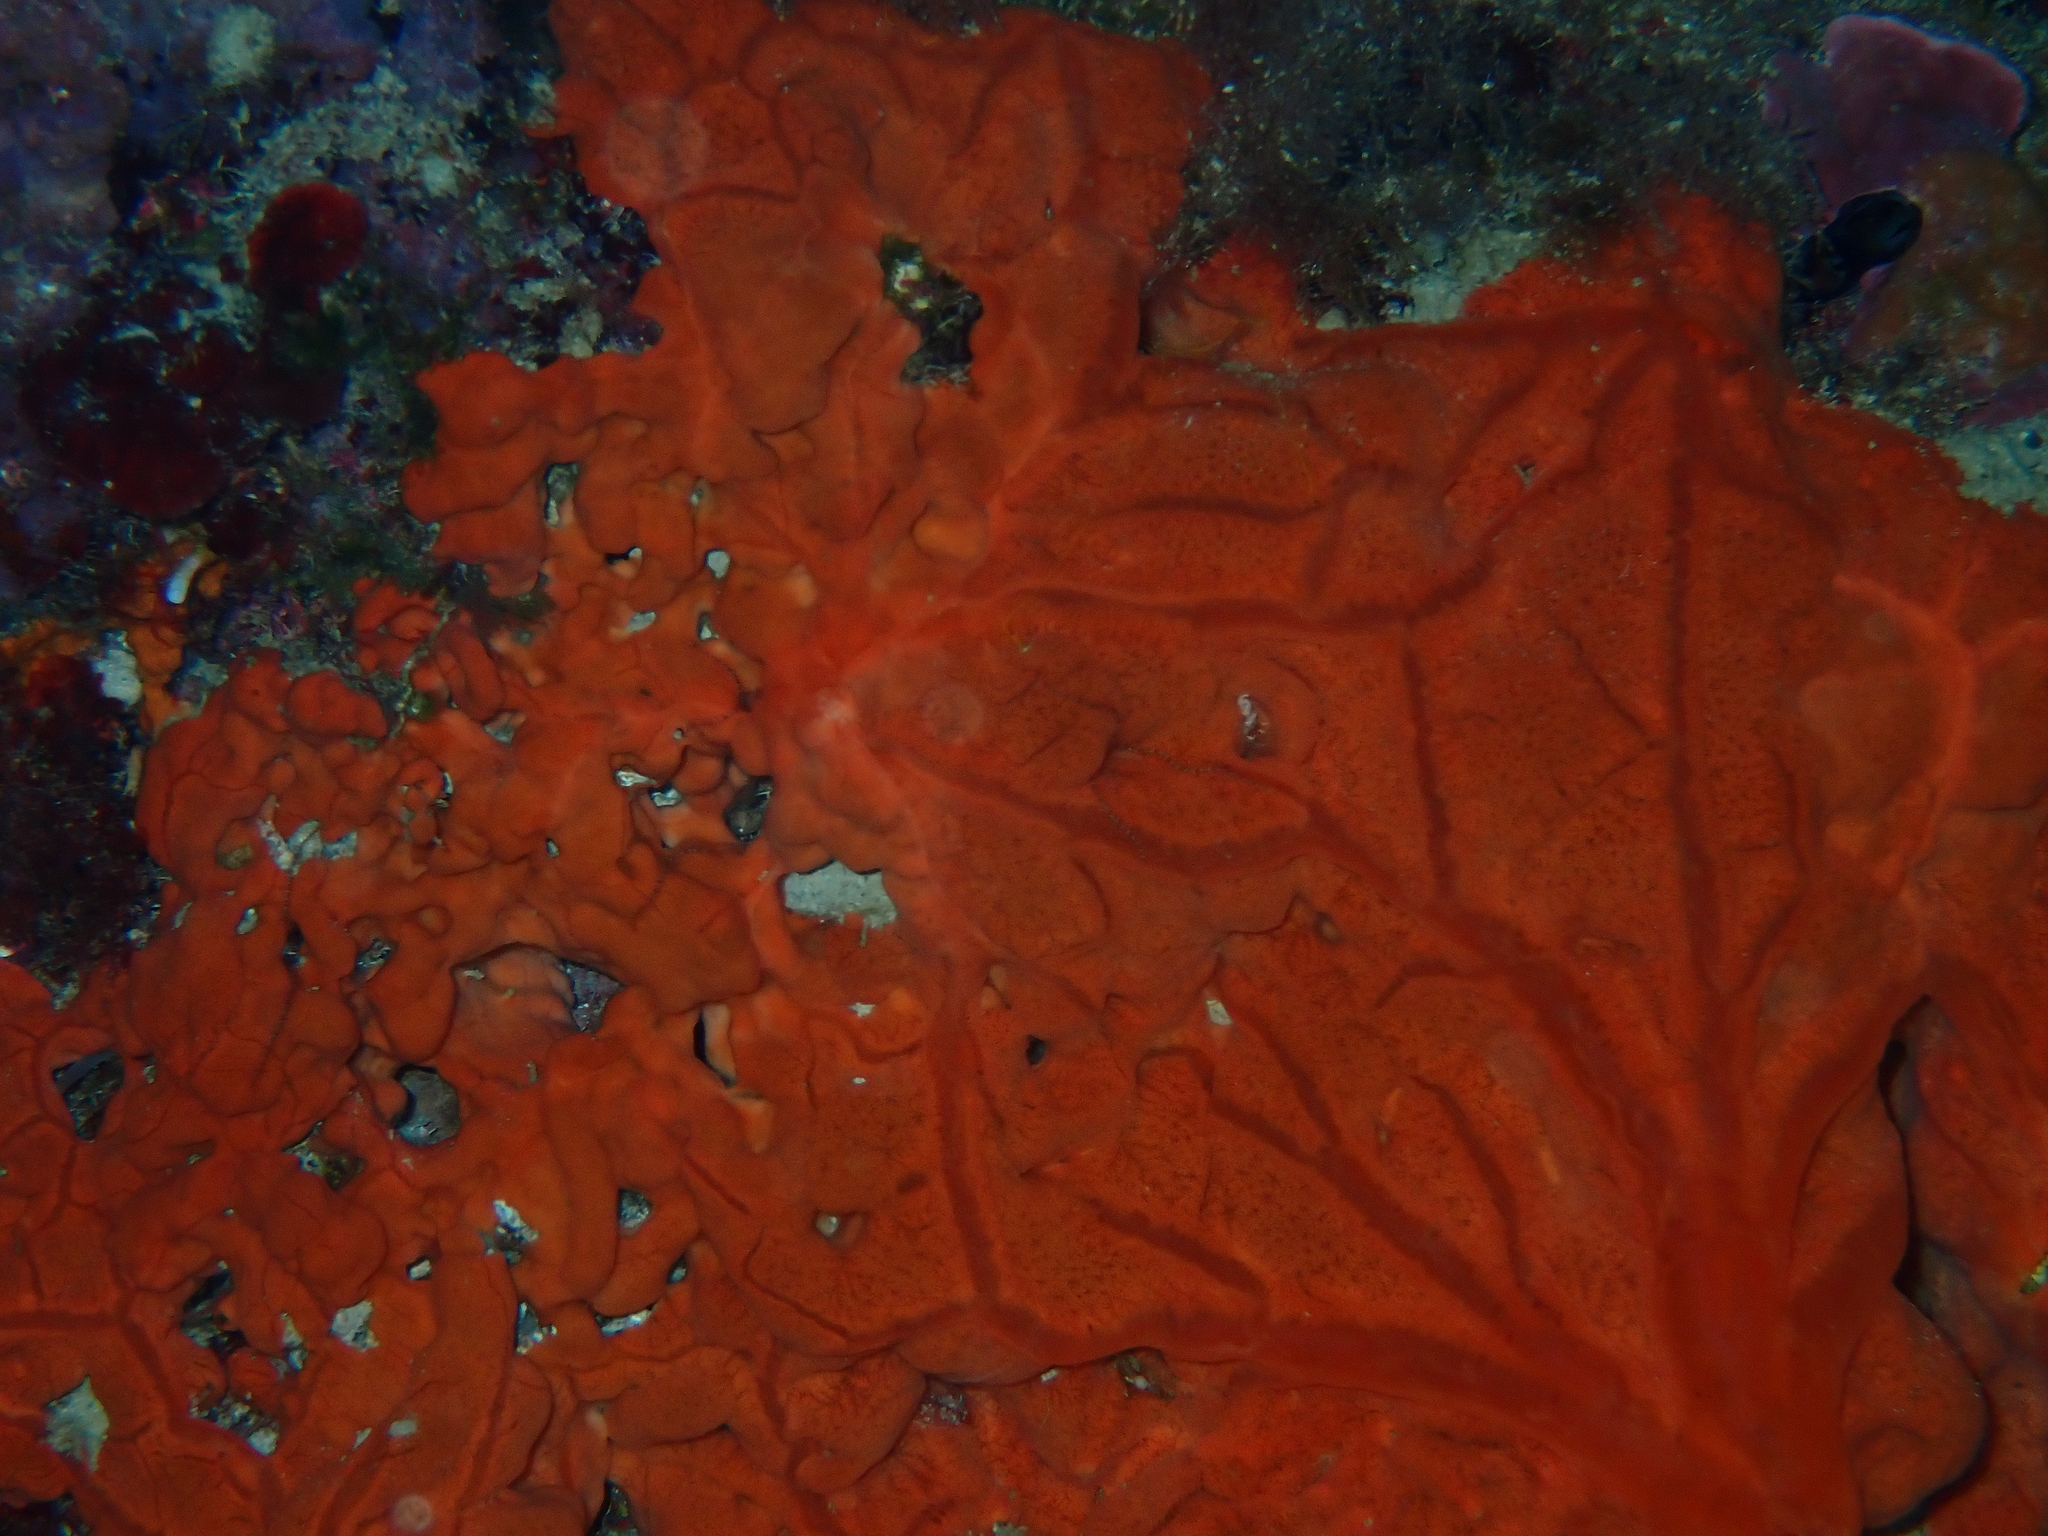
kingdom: Animalia
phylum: Porifera
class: Demospongiae
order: Clionaida
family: Spirastrellidae
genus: Spirastrella
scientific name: Spirastrella cunctatrix
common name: Encrusting orange sponge
